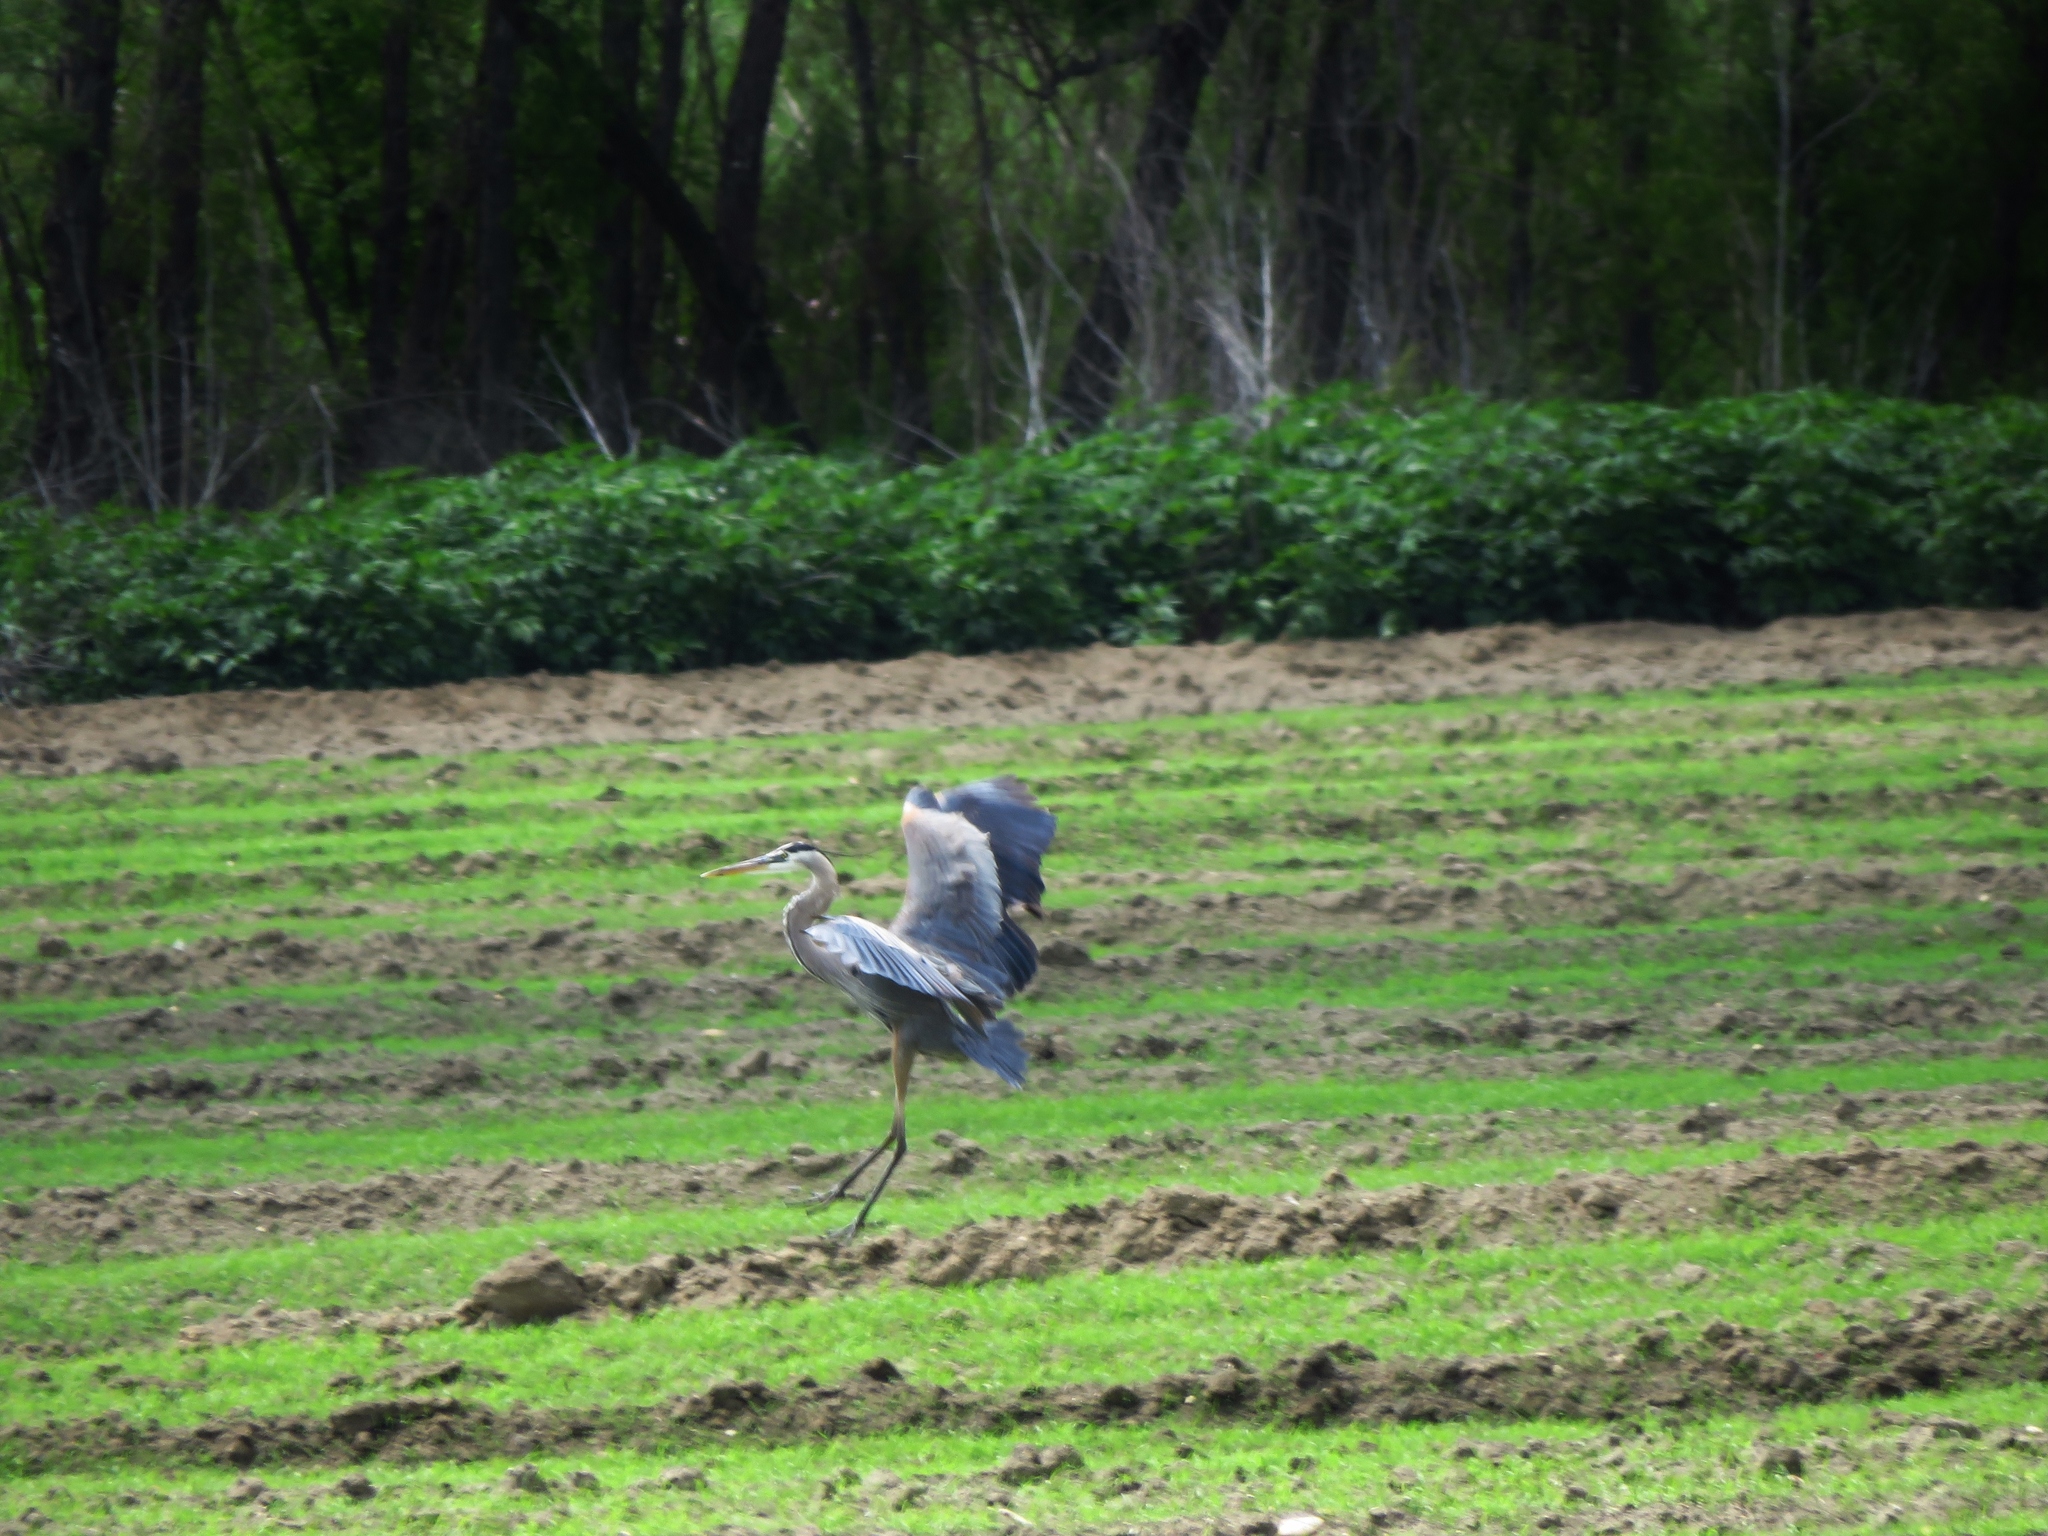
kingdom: Animalia
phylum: Chordata
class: Aves
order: Pelecaniformes
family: Ardeidae
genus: Ardea
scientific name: Ardea herodias
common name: Great blue heron
